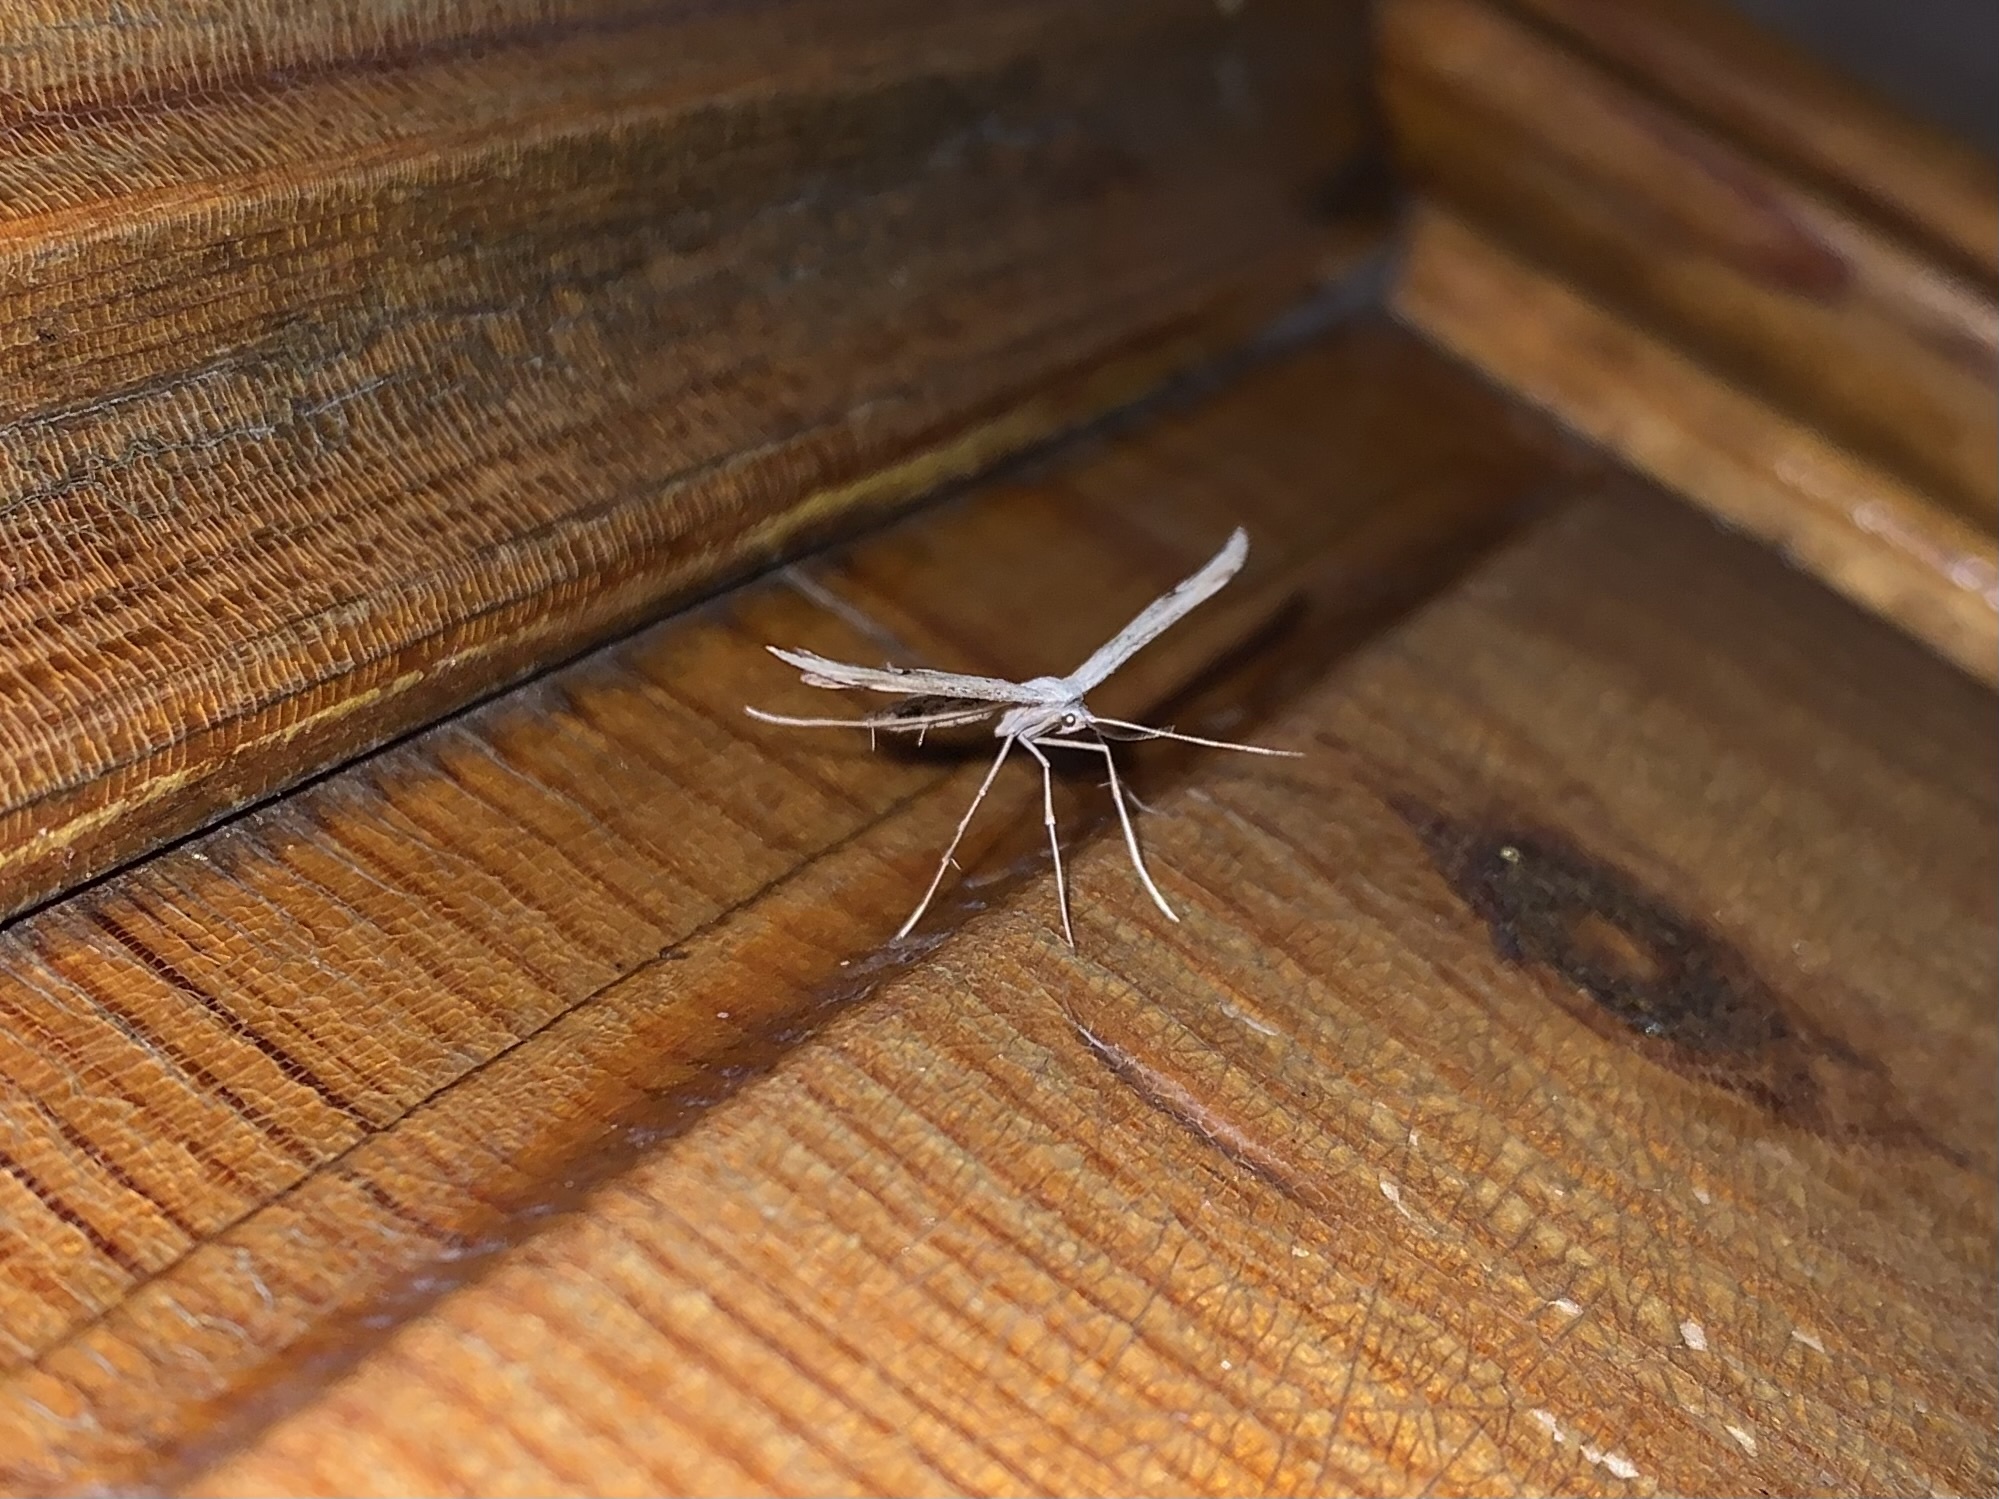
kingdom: Animalia
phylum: Arthropoda
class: Insecta
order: Lepidoptera
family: Pterophoridae
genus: Emmelina
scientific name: Emmelina monodactyla
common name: Common plume
